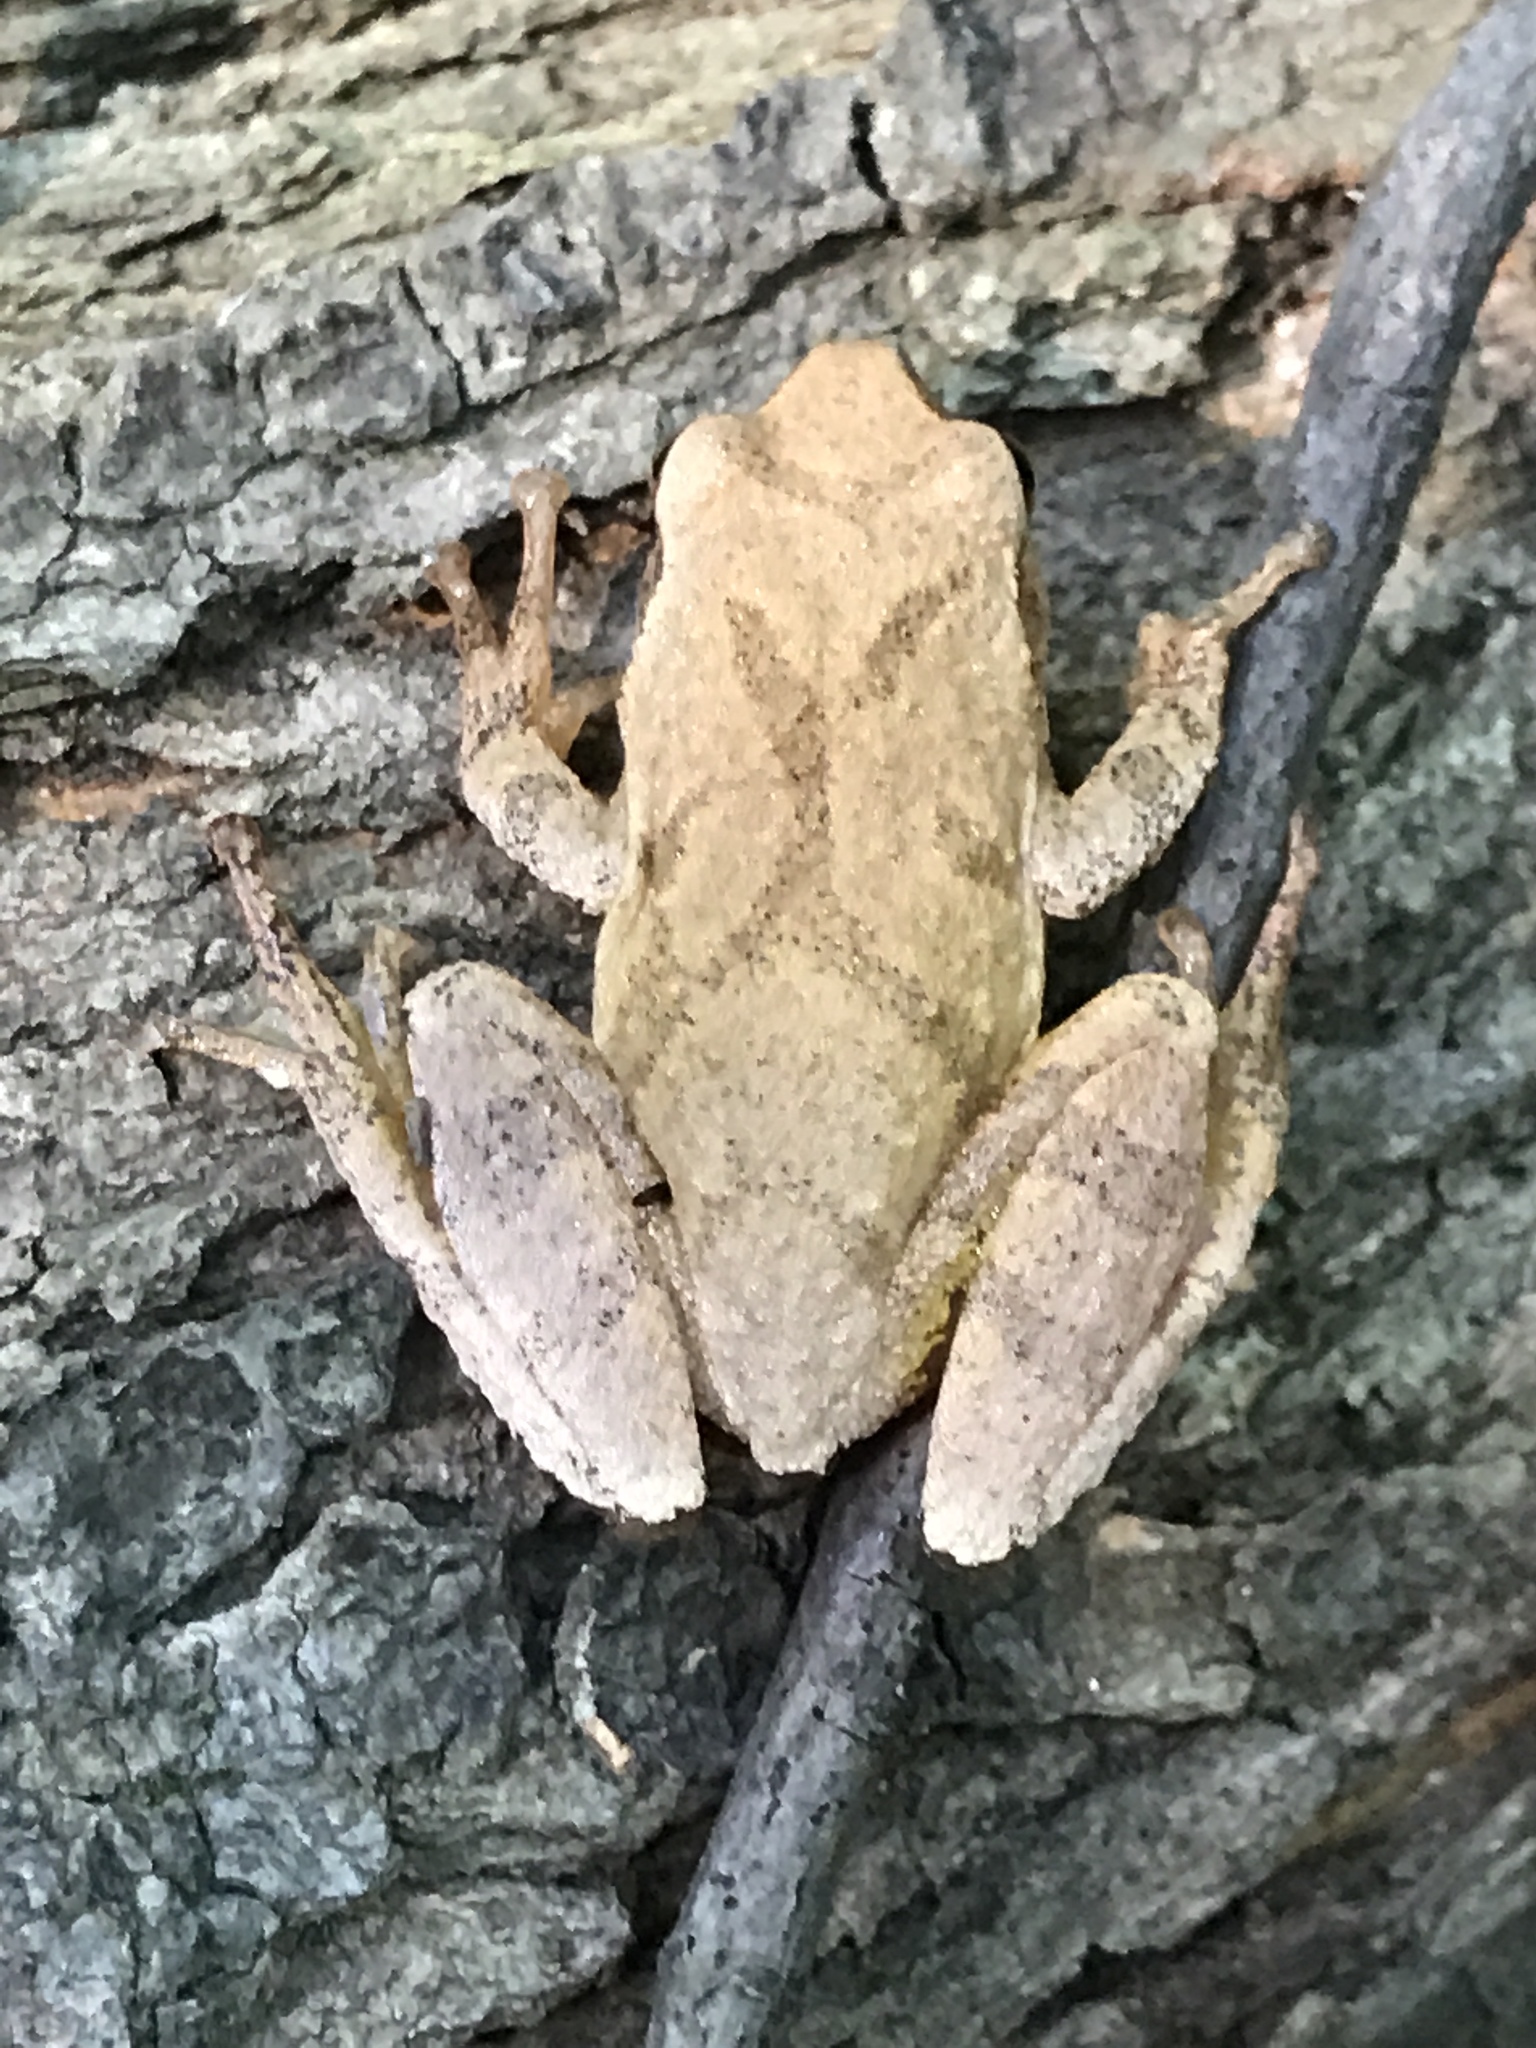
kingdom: Animalia
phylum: Chordata
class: Amphibia
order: Anura
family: Hylidae
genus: Pseudacris
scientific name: Pseudacris crucifer
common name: Spring peeper
